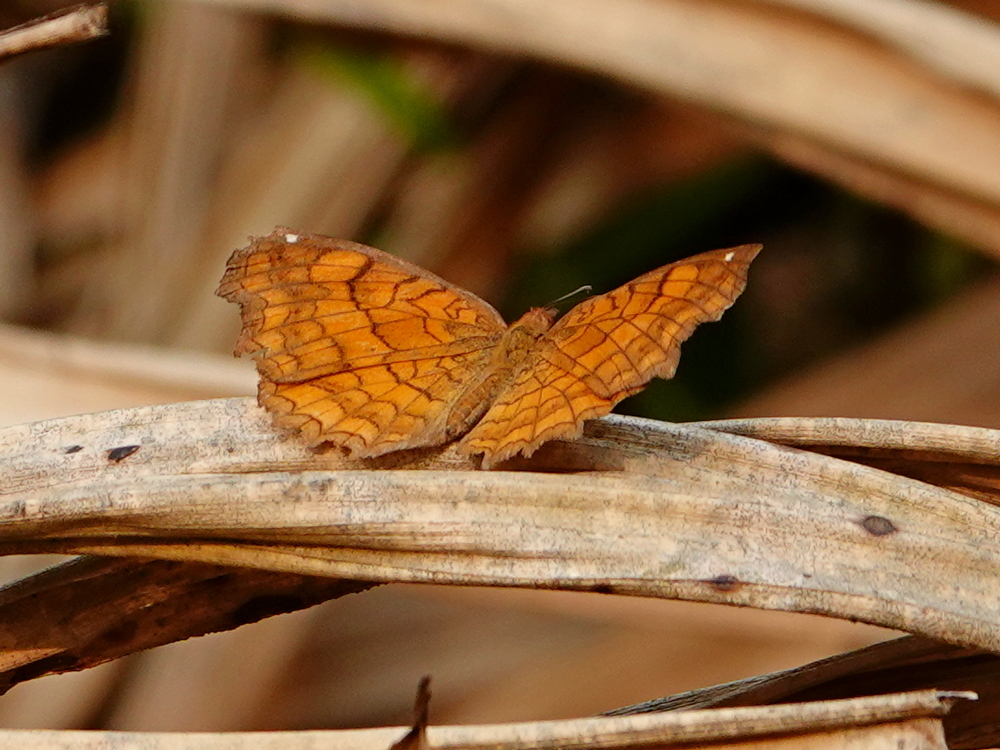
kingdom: Animalia
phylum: Arthropoda
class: Insecta
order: Lepidoptera
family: Nymphalidae
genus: Ariadne
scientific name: Ariadne ariadne
